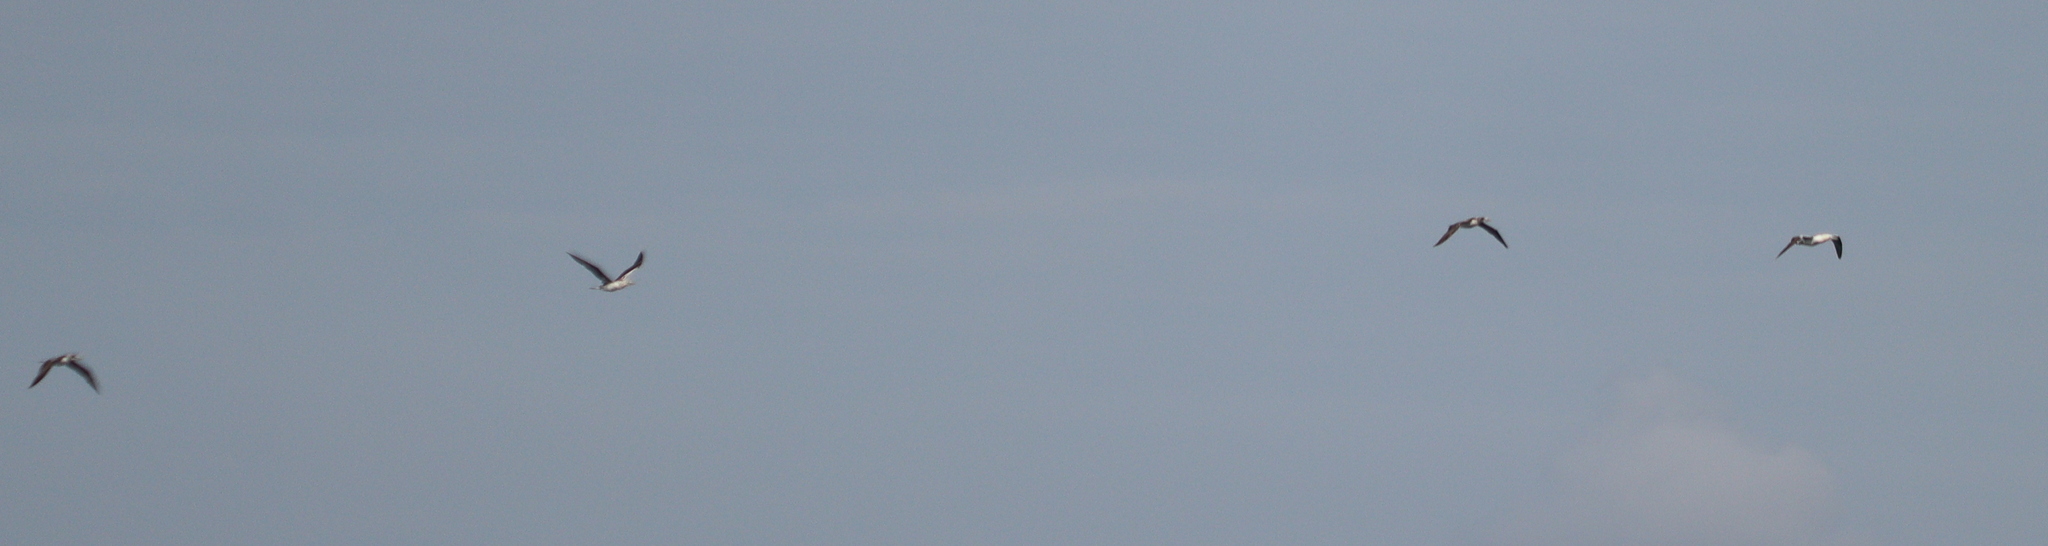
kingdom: Animalia
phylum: Chordata
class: Aves
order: Suliformes
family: Sulidae
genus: Morus
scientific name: Morus bassanus
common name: Northern gannet
